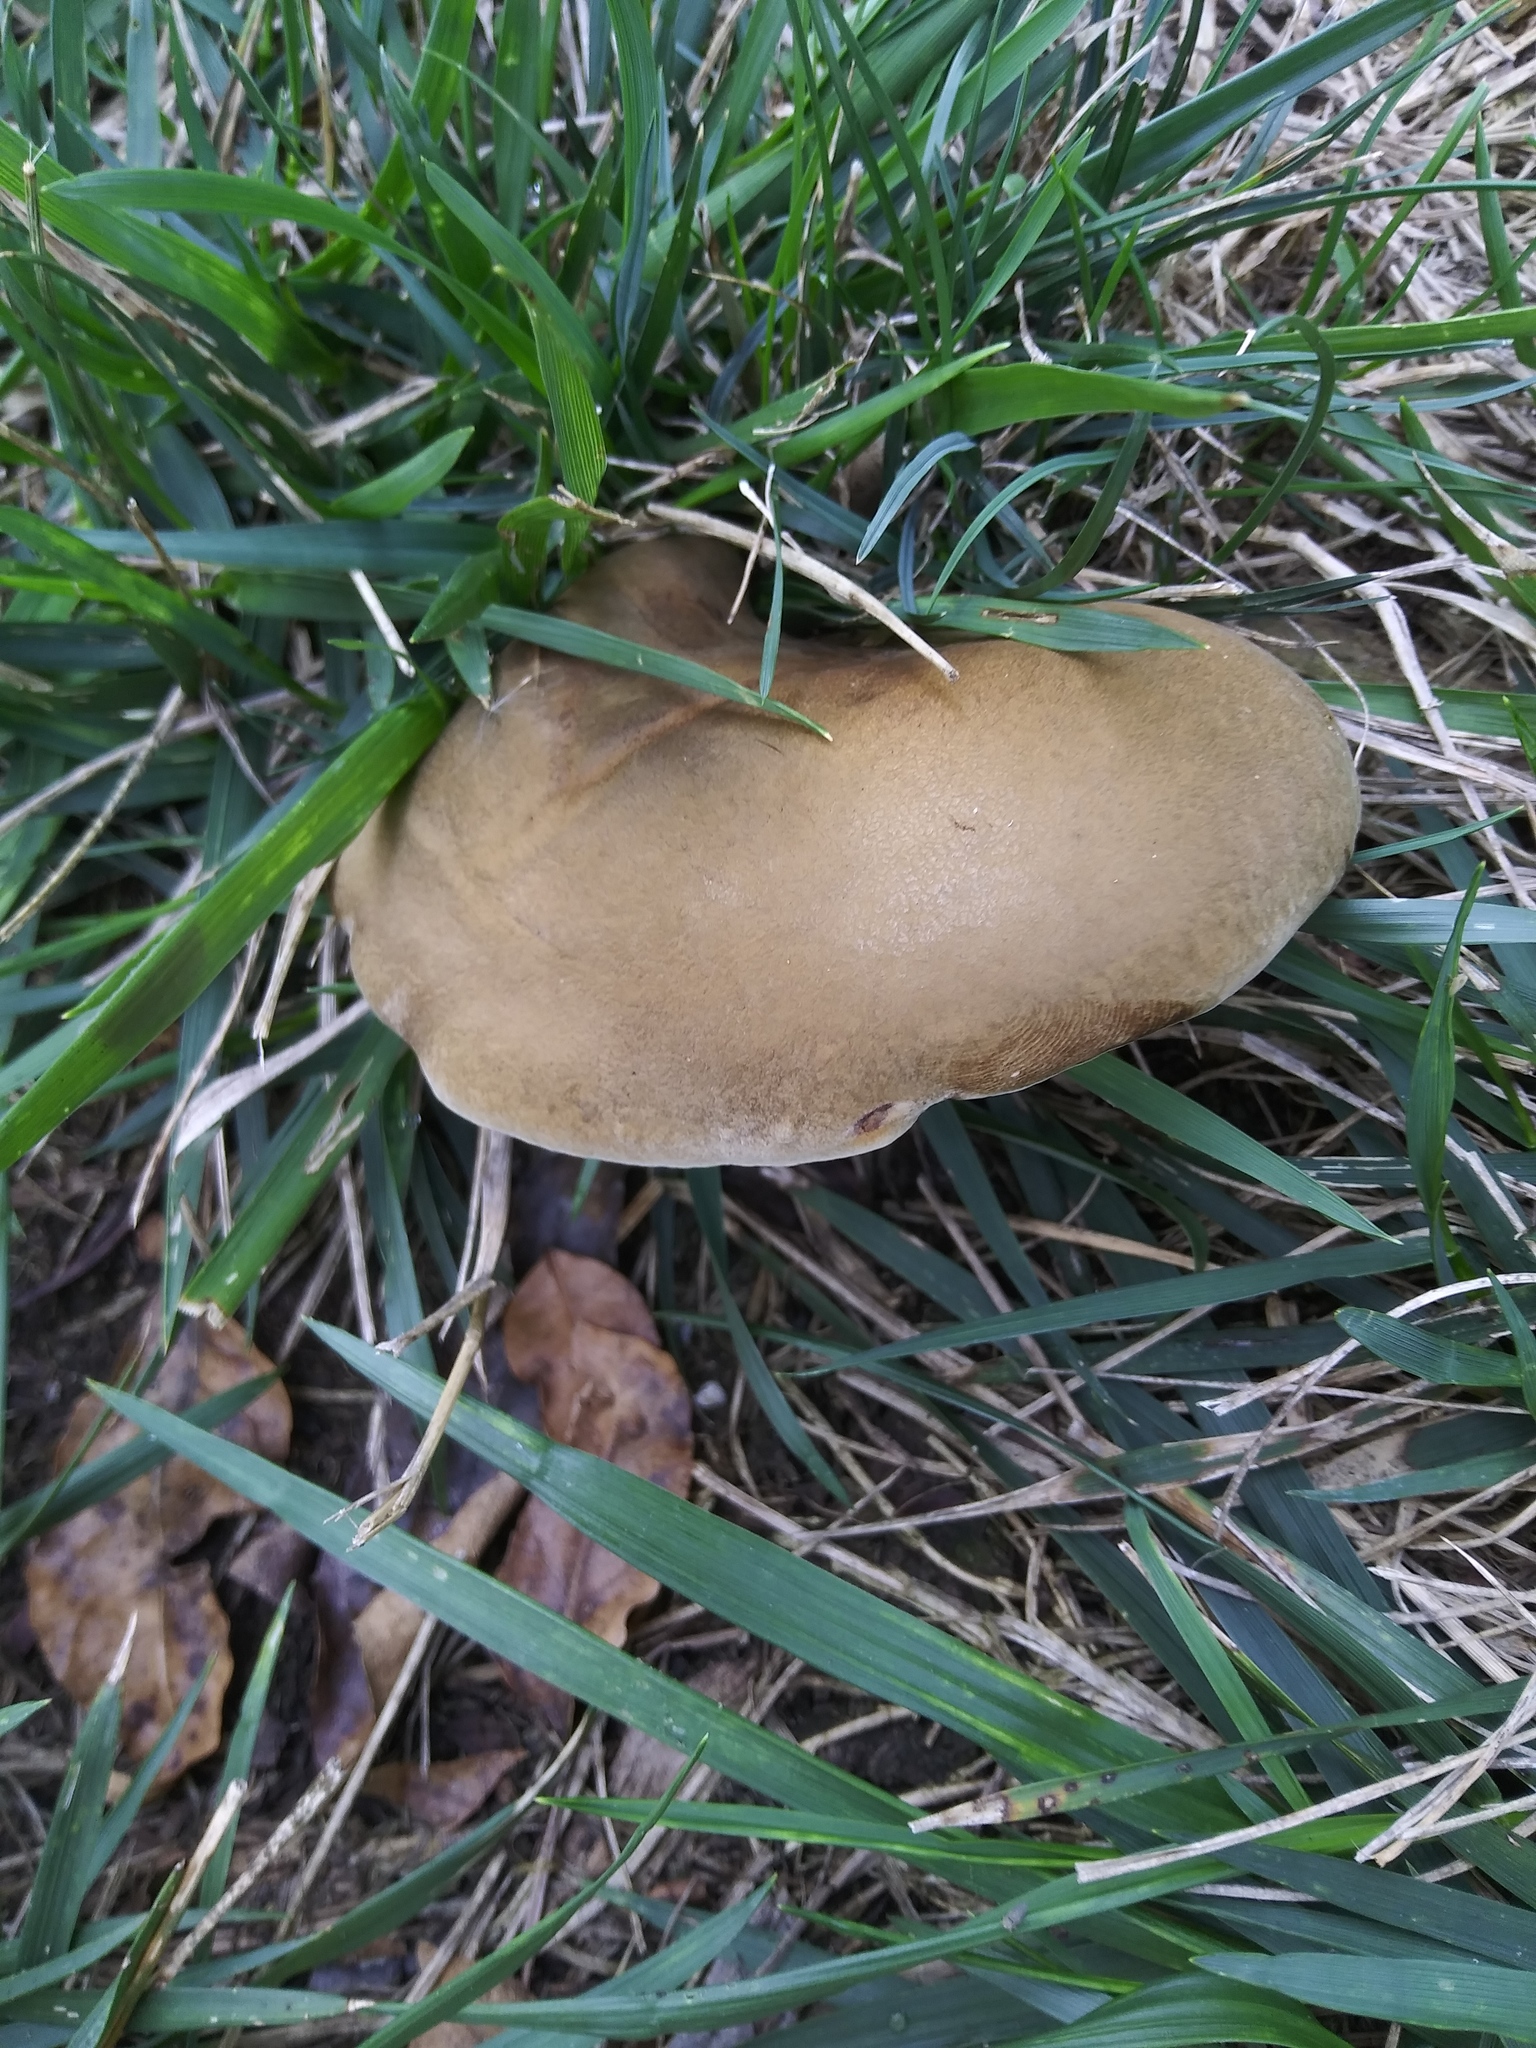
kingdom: Fungi
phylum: Basidiomycota
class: Agaricomycetes
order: Boletales
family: Boletinellaceae
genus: Boletinellus
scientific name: Boletinellus merulioides
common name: Ash tree bolete
